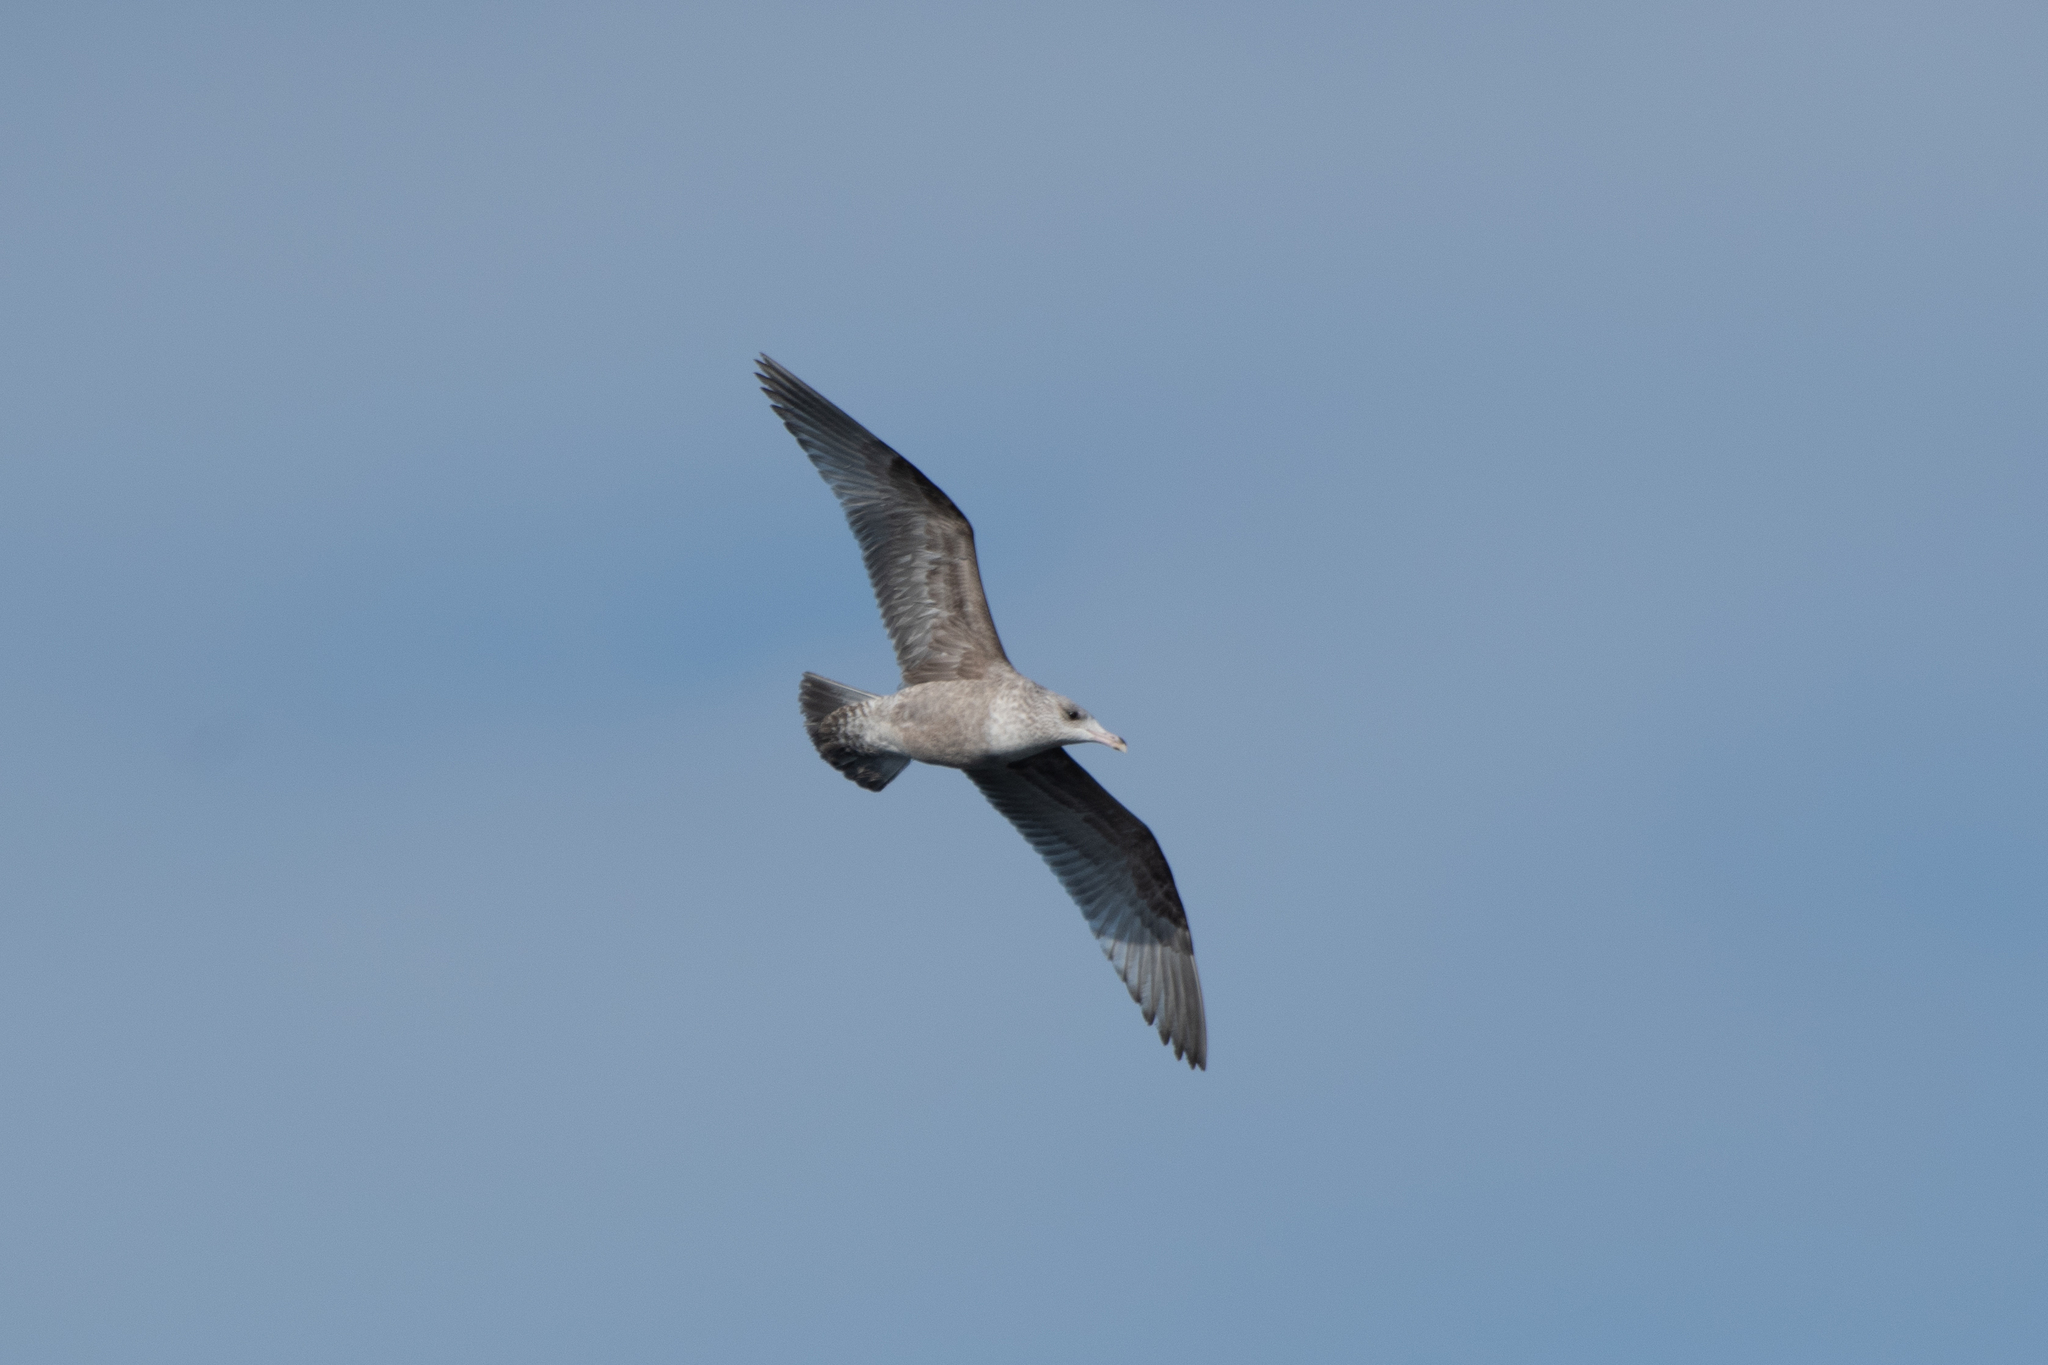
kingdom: Animalia
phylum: Chordata
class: Aves
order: Charadriiformes
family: Laridae
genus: Larus
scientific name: Larus argentatus
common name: Herring gull
